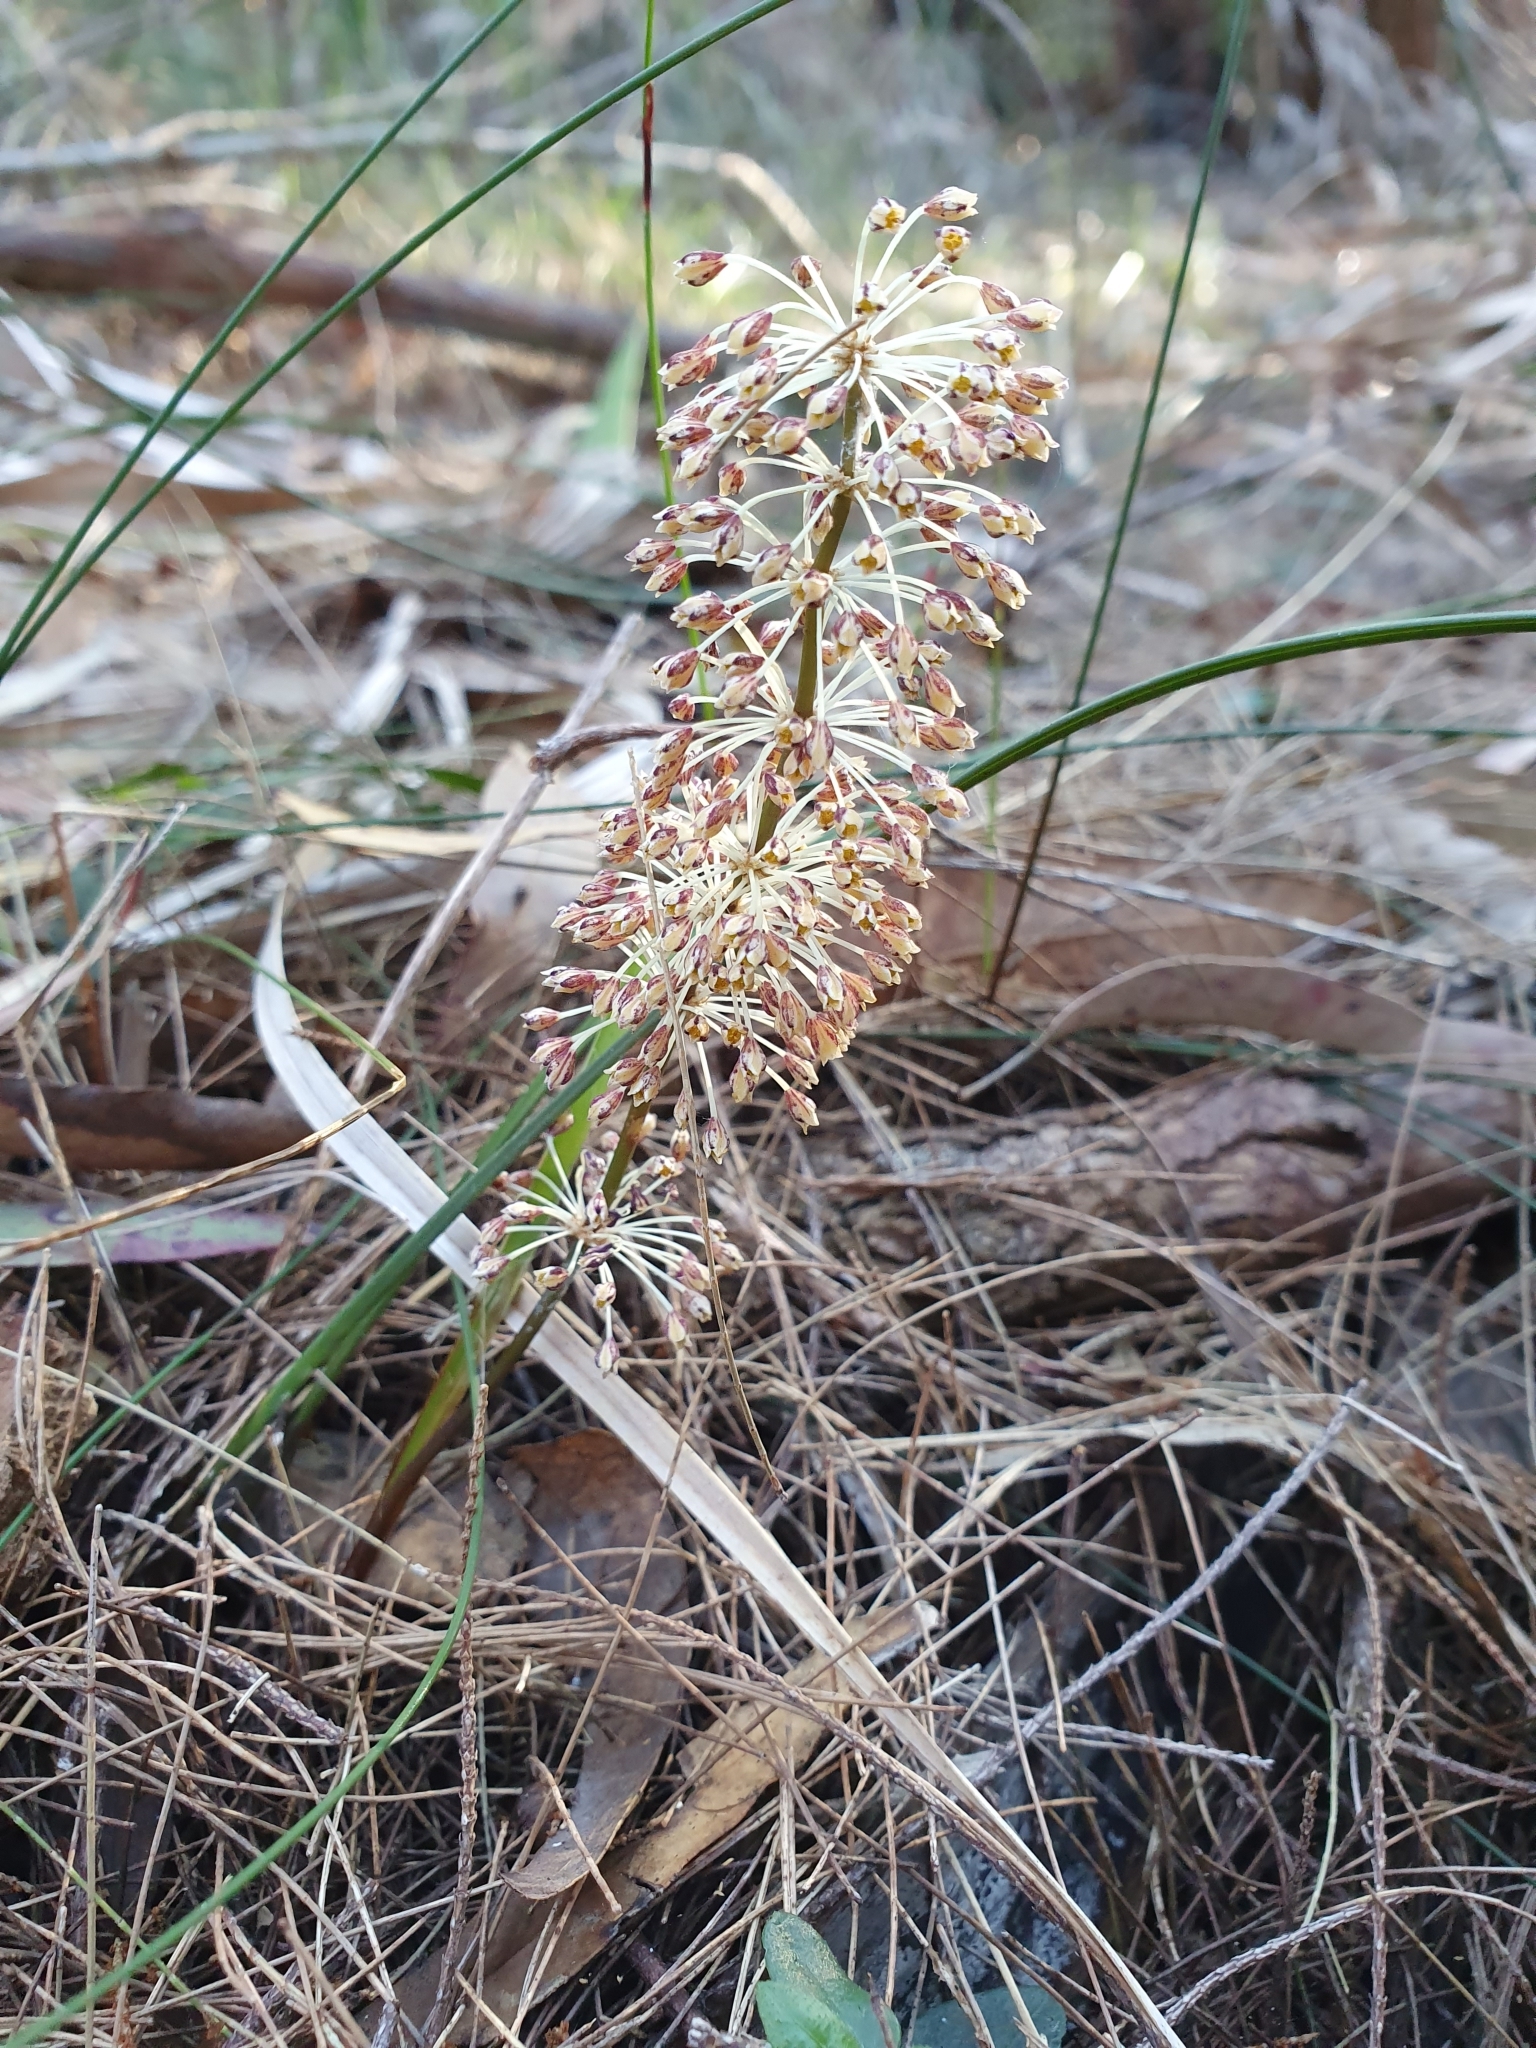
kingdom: Plantae
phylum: Tracheophyta
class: Liliopsida
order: Asparagales
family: Asparagaceae
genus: Lomandra
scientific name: Lomandra multiflora
